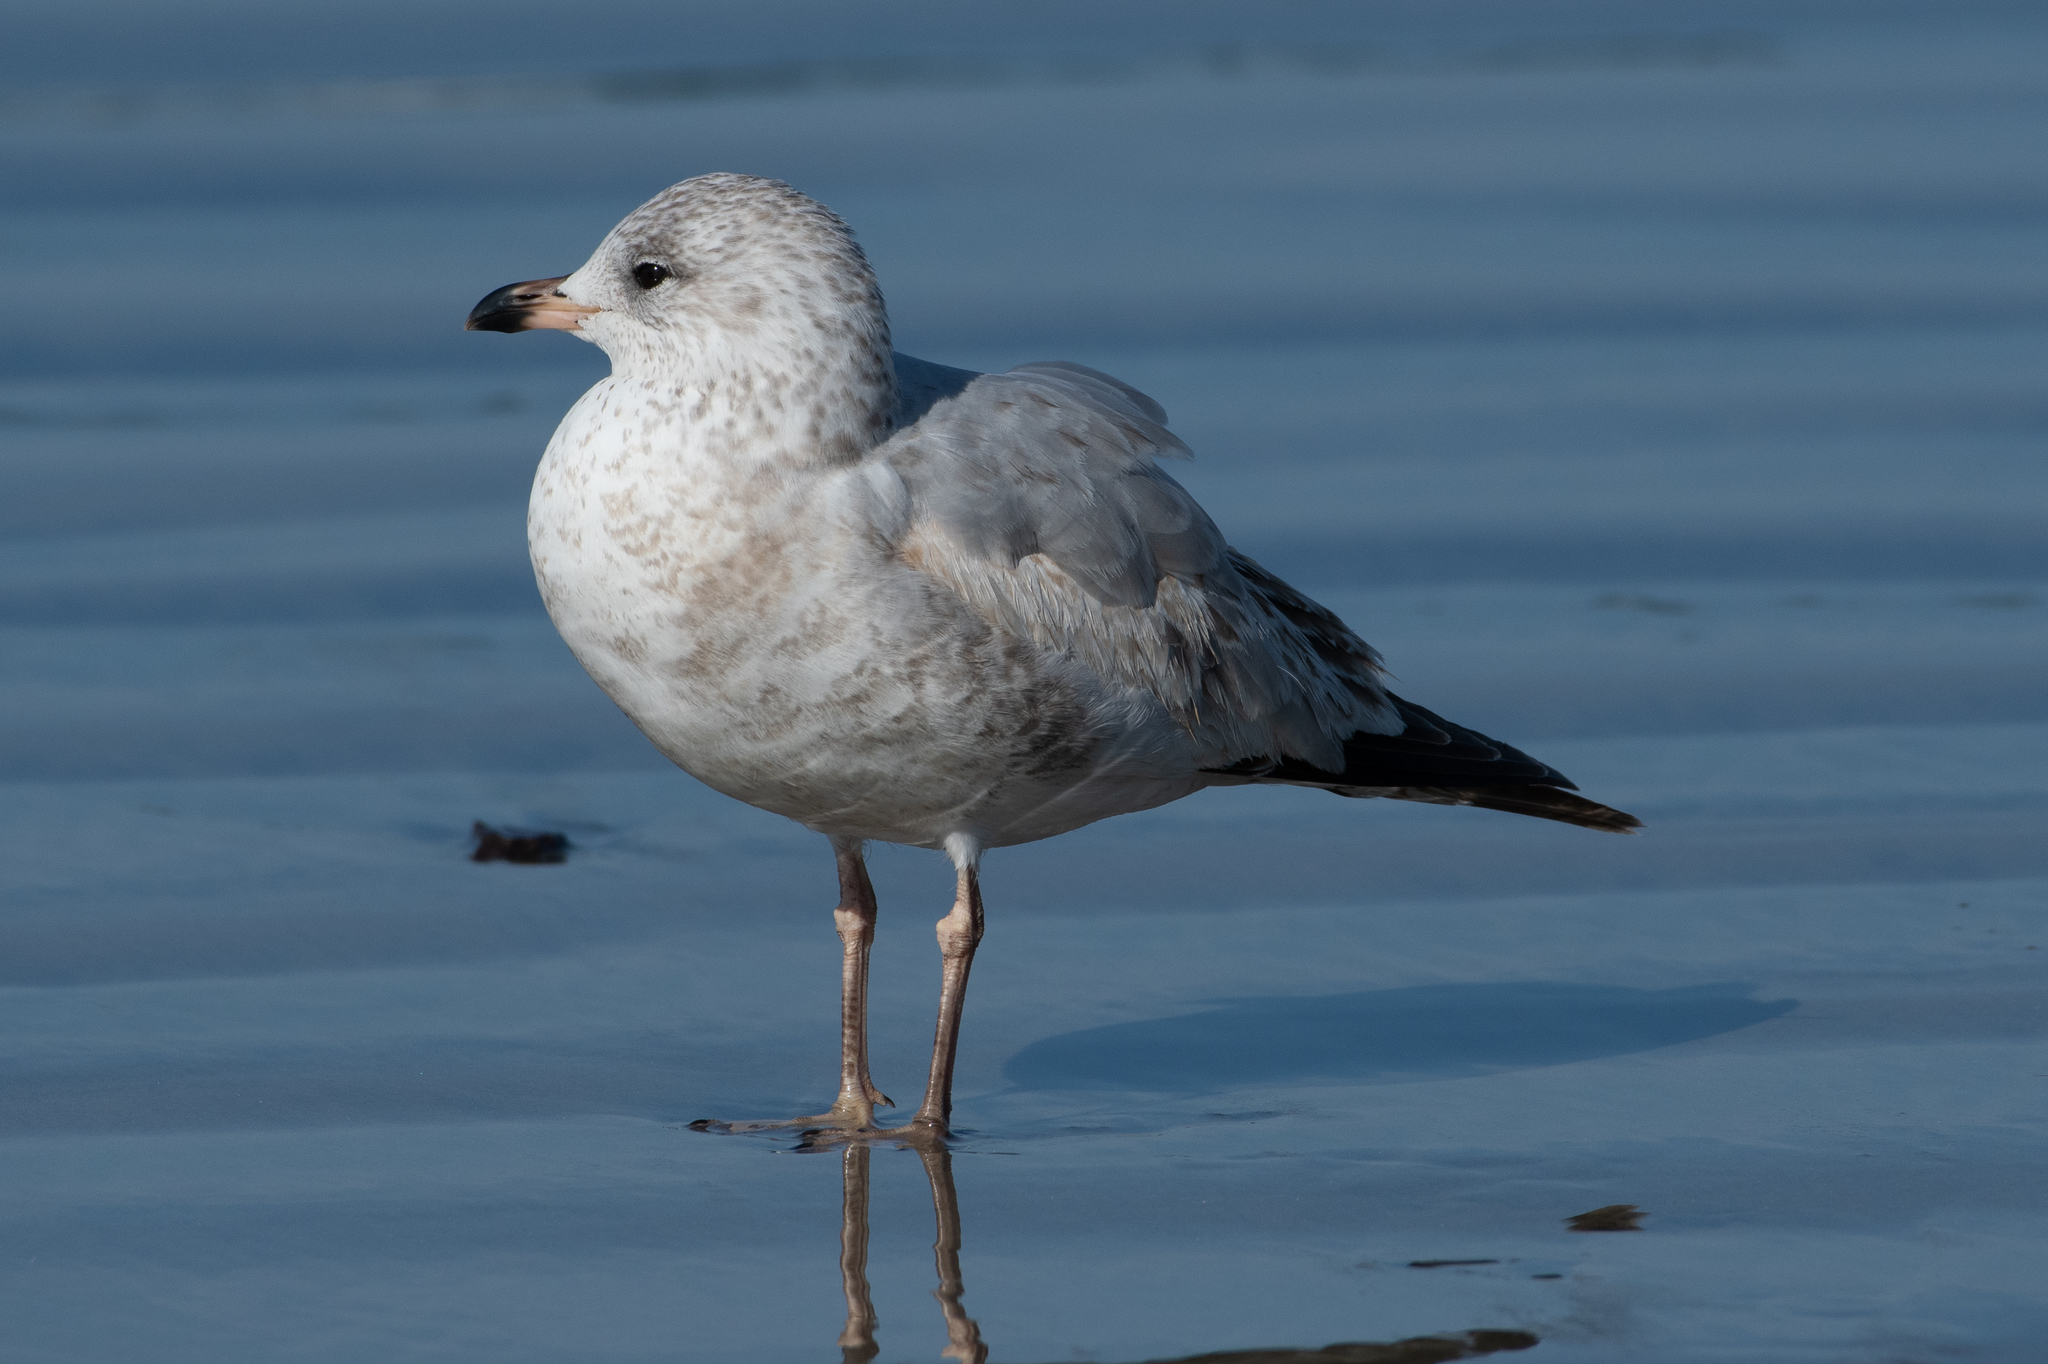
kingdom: Animalia
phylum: Chordata
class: Aves
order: Charadriiformes
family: Laridae
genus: Larus
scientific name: Larus delawarensis
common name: Ring-billed gull
